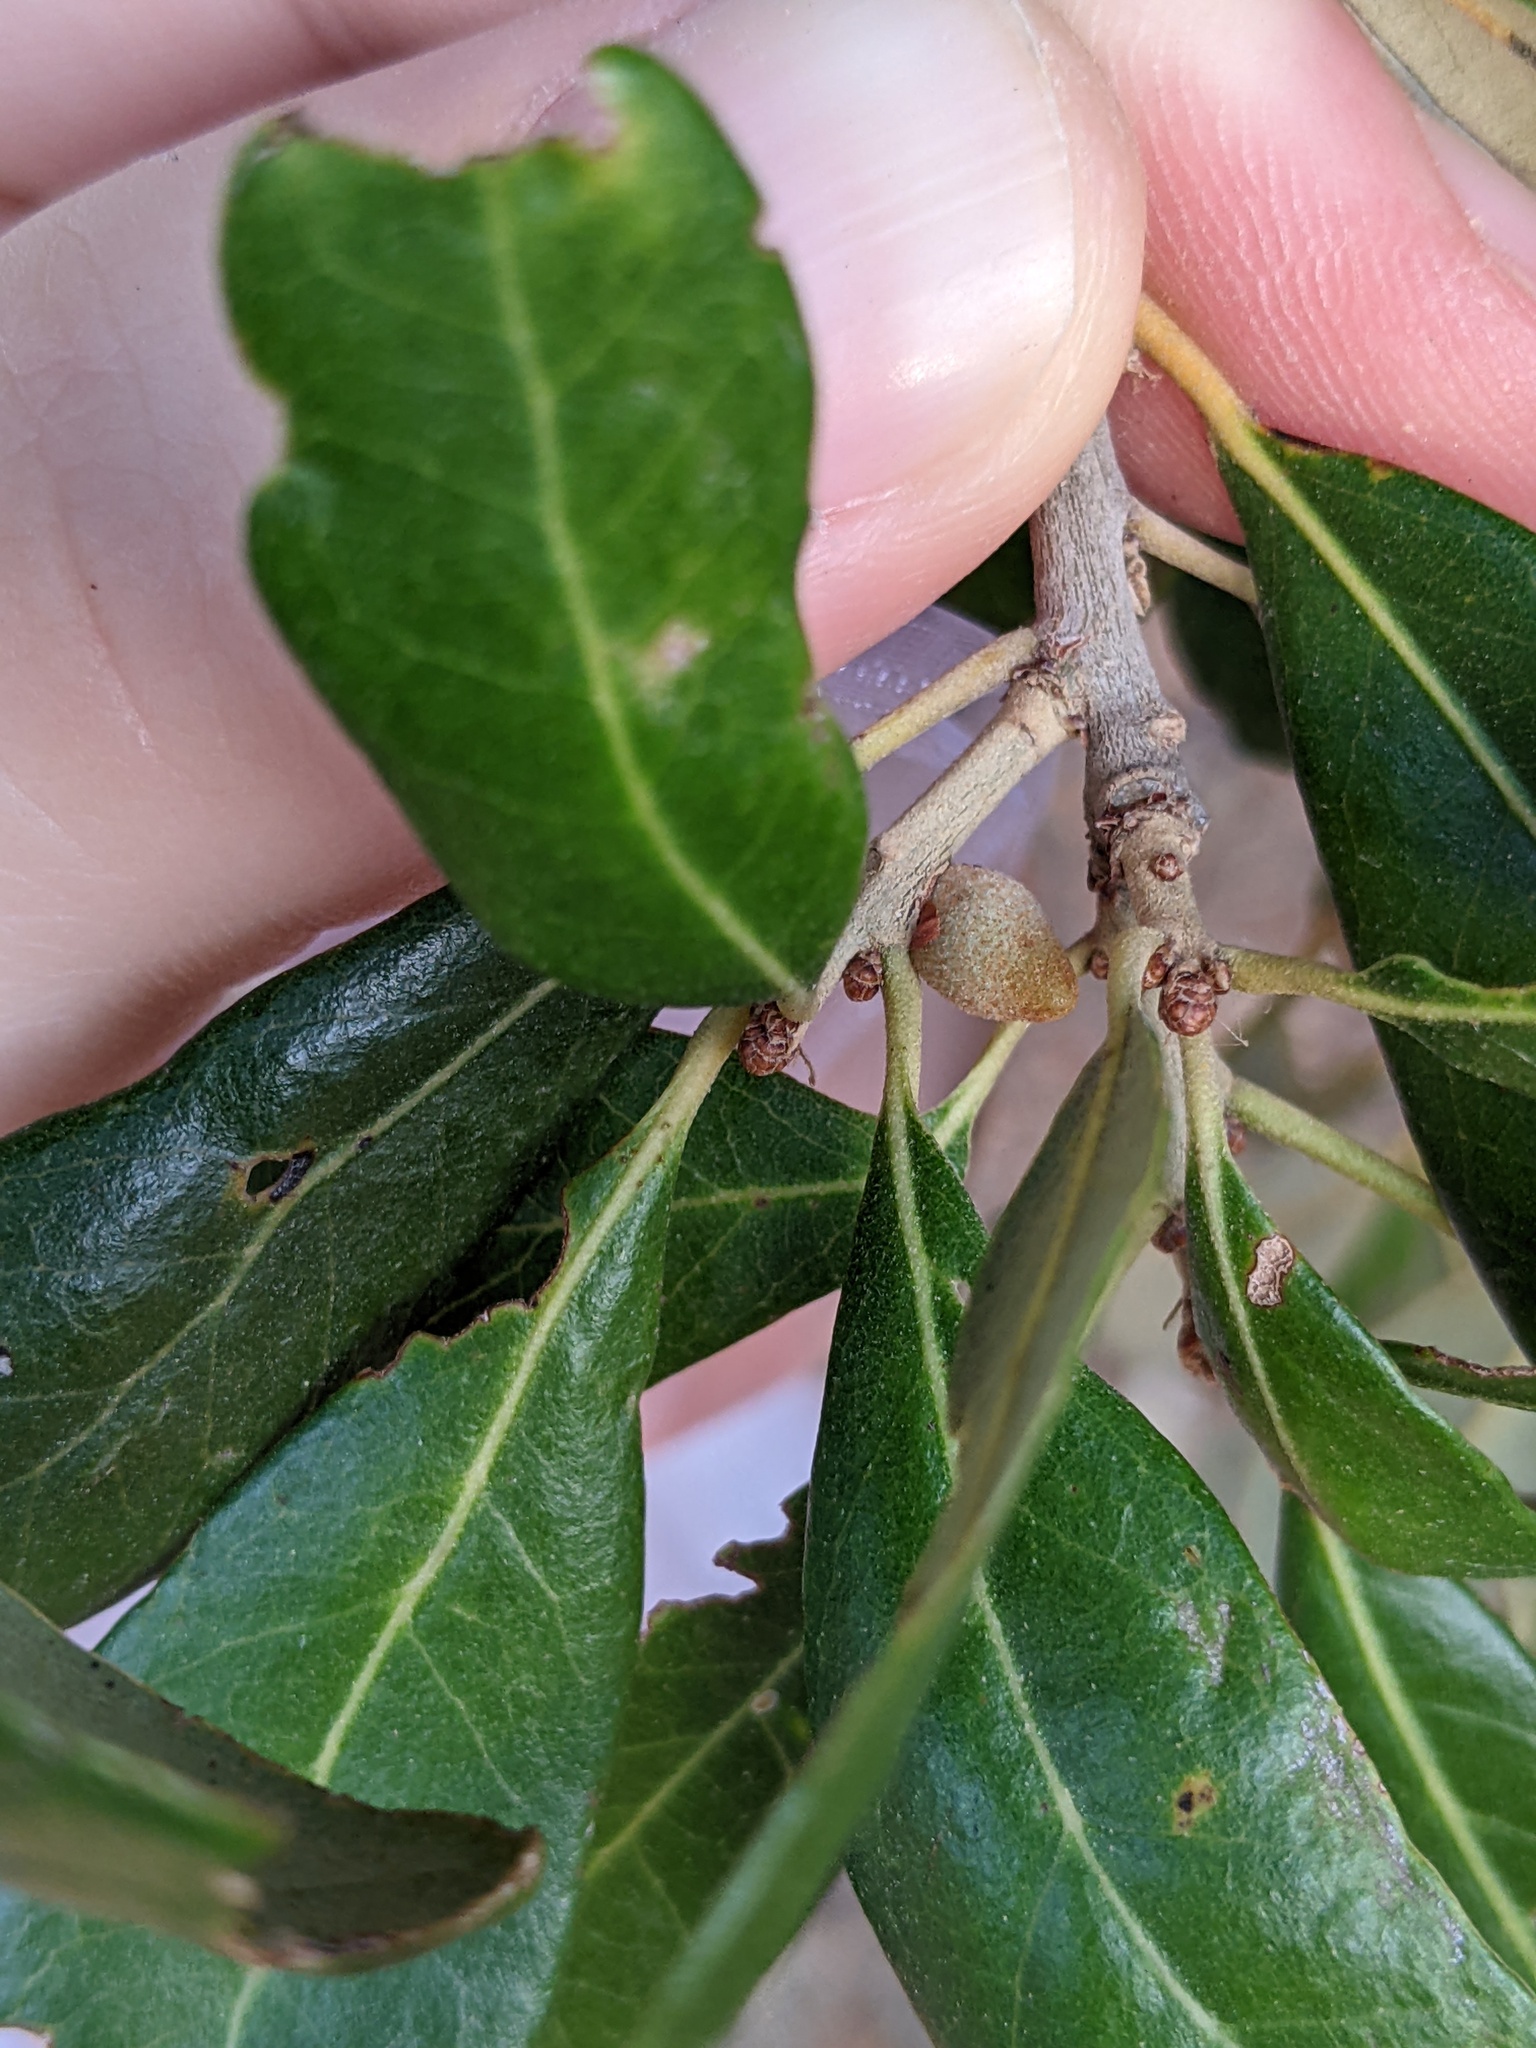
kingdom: Animalia
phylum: Arthropoda
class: Insecta
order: Hymenoptera
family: Cynipidae
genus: Disholcaspis
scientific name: Disholcaspis
